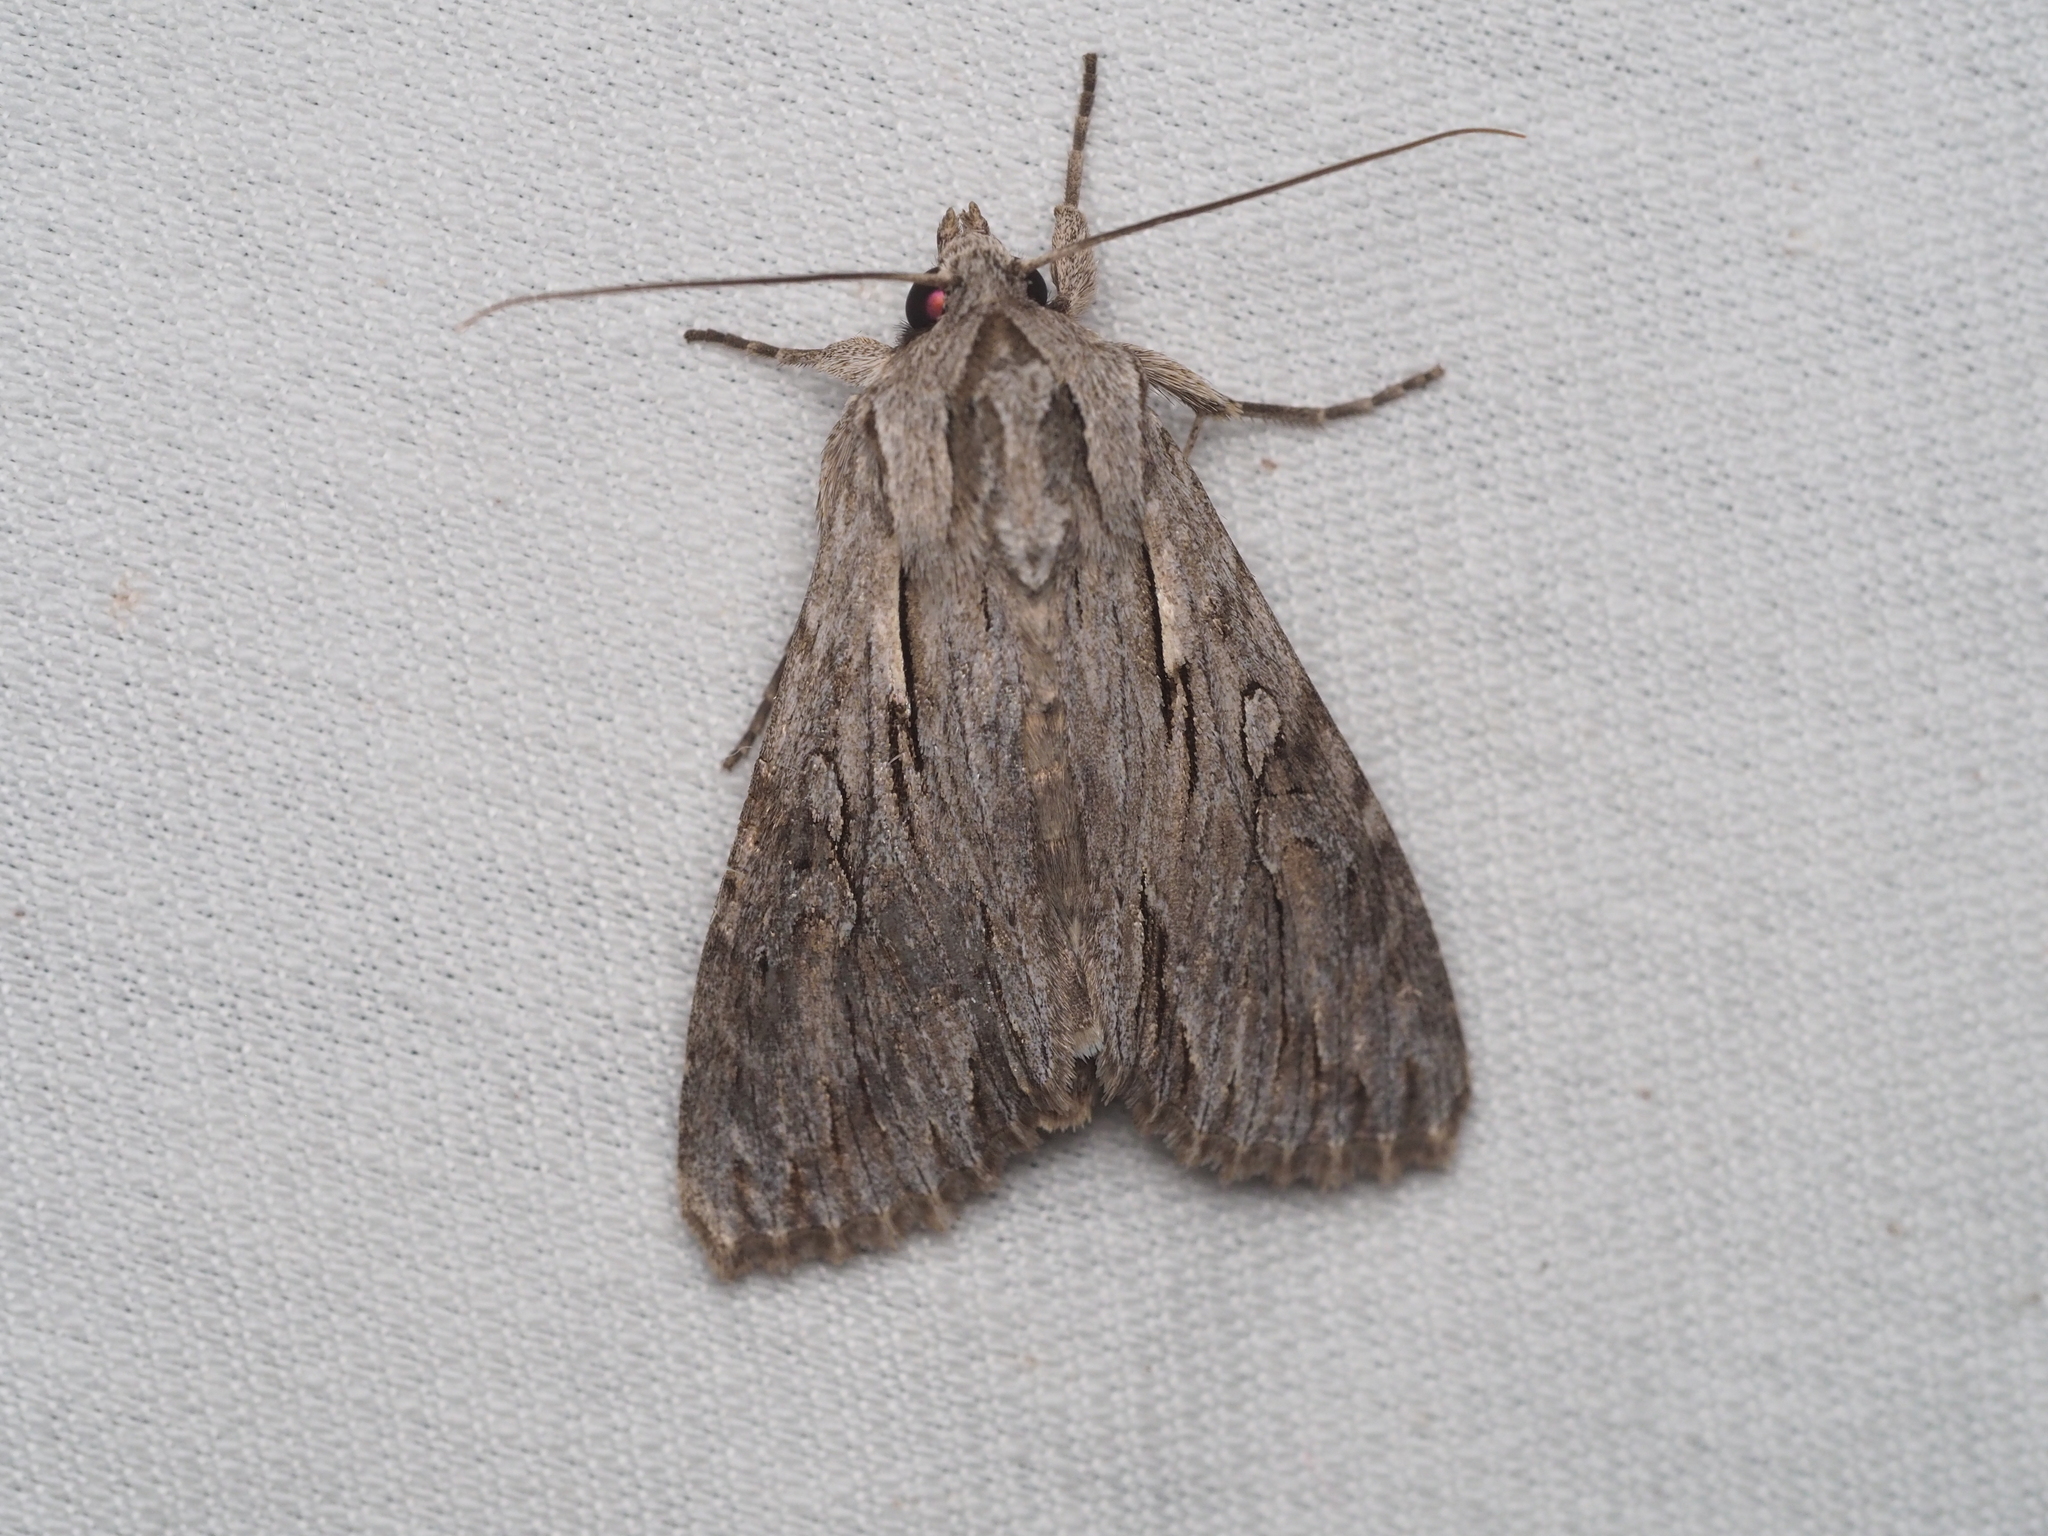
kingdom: Animalia
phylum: Arthropoda
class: Insecta
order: Lepidoptera
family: Noctuidae
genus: Auchmis
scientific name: Auchmis detersa
